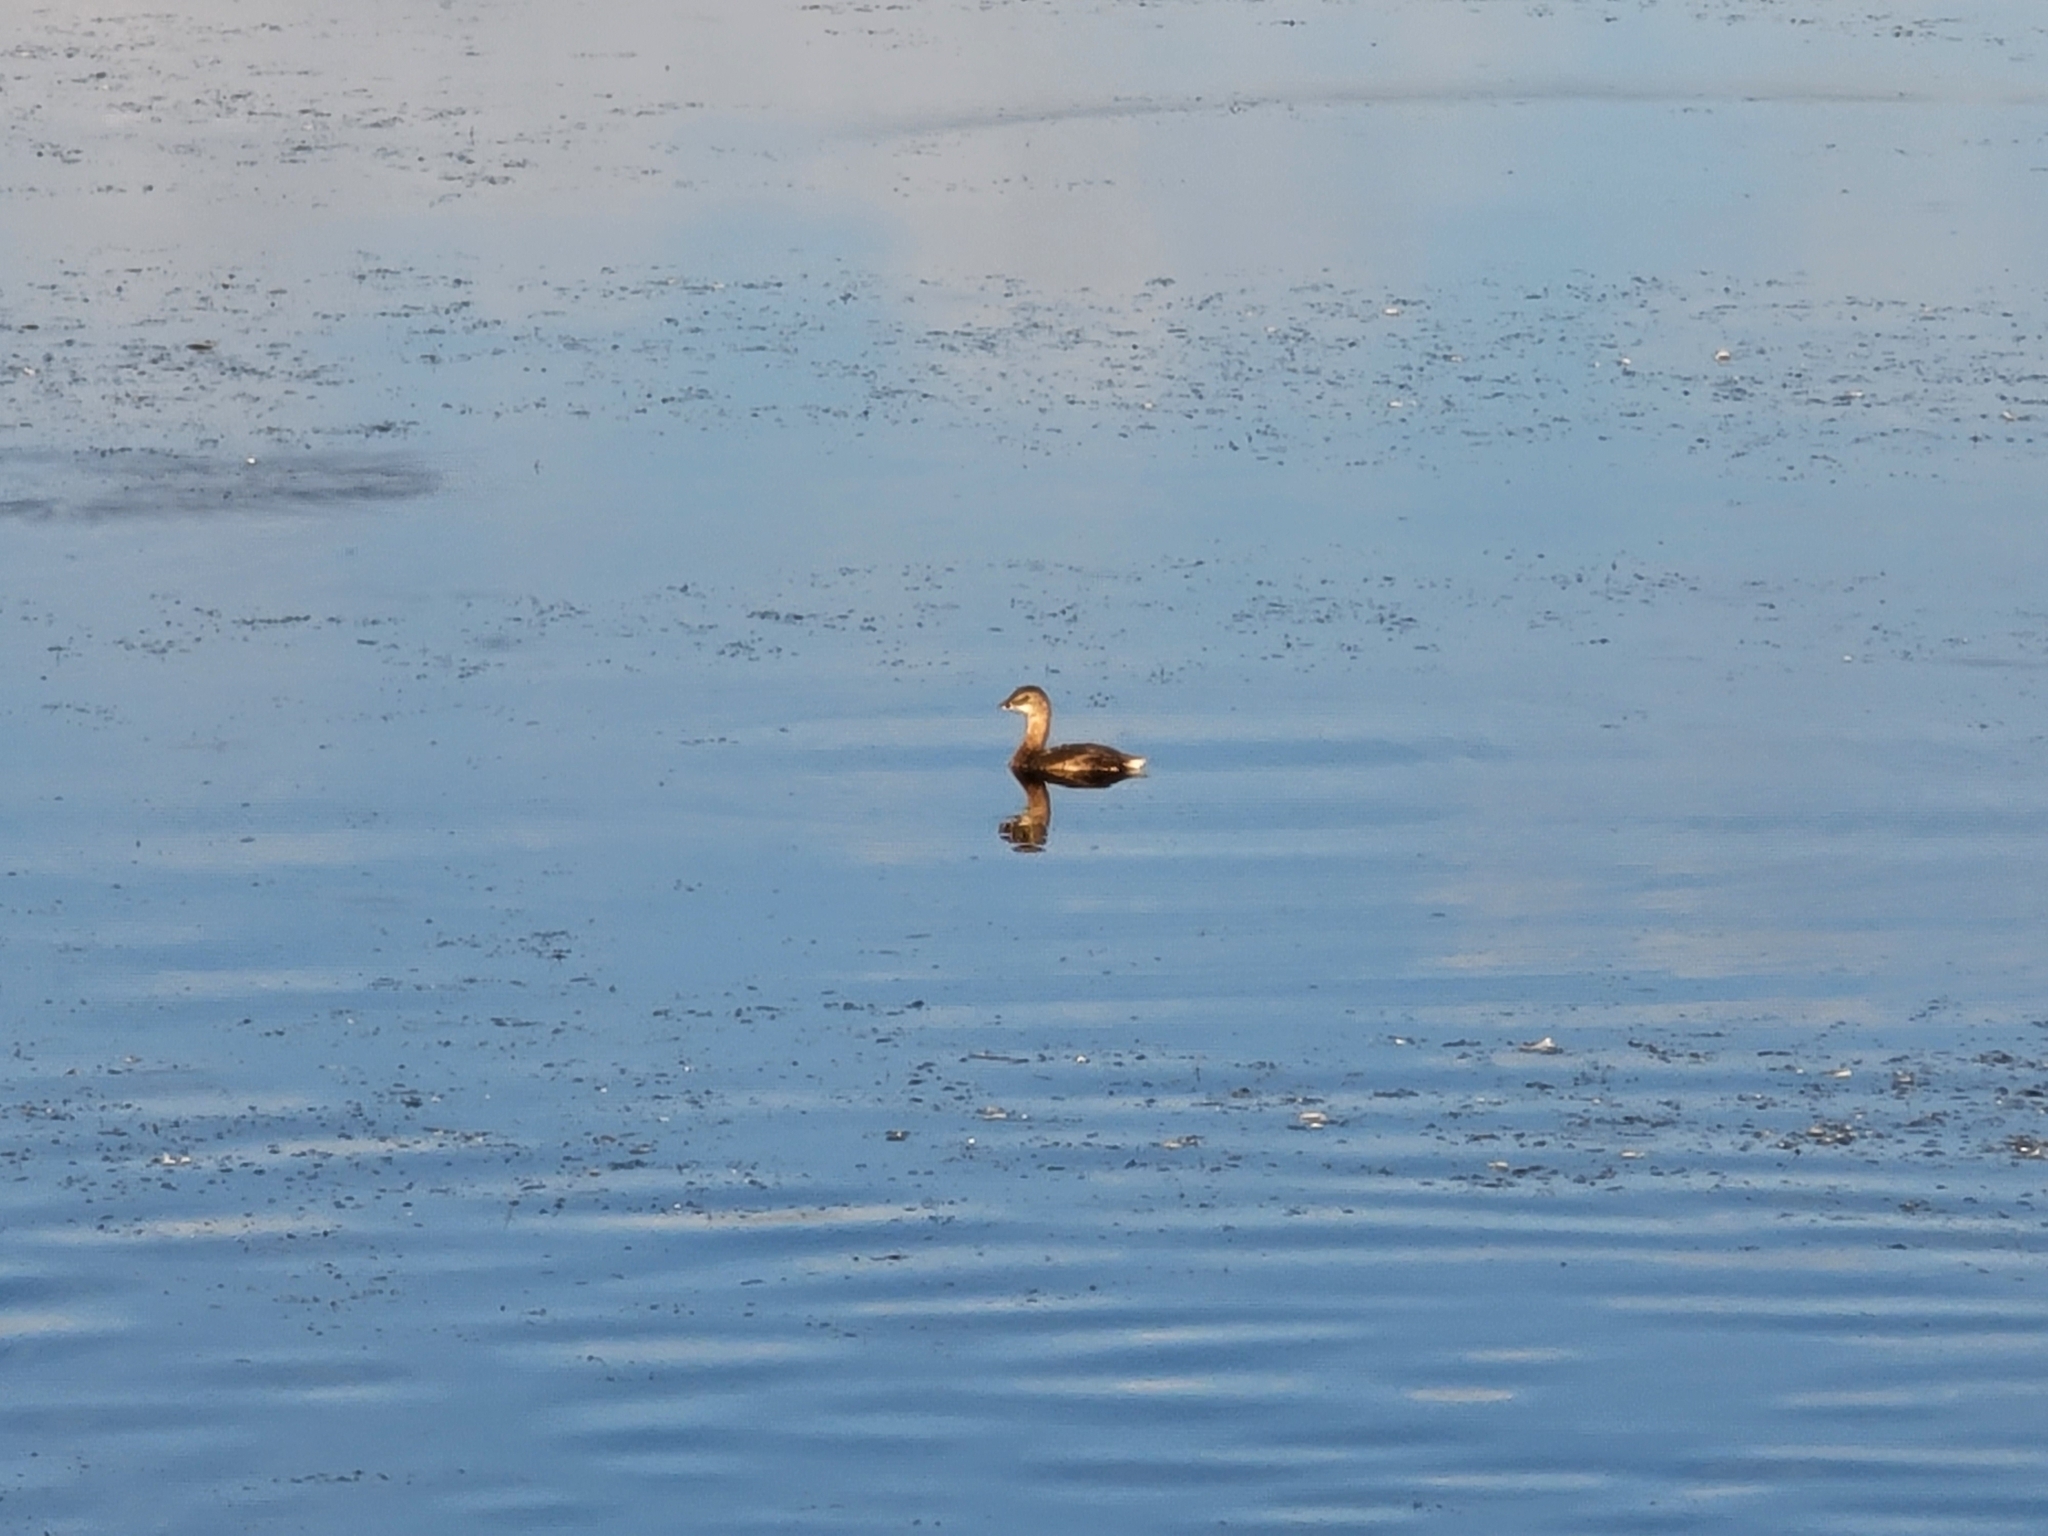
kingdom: Animalia
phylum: Chordata
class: Aves
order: Podicipediformes
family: Podicipedidae
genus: Podilymbus
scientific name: Podilymbus podiceps
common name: Pied-billed grebe
